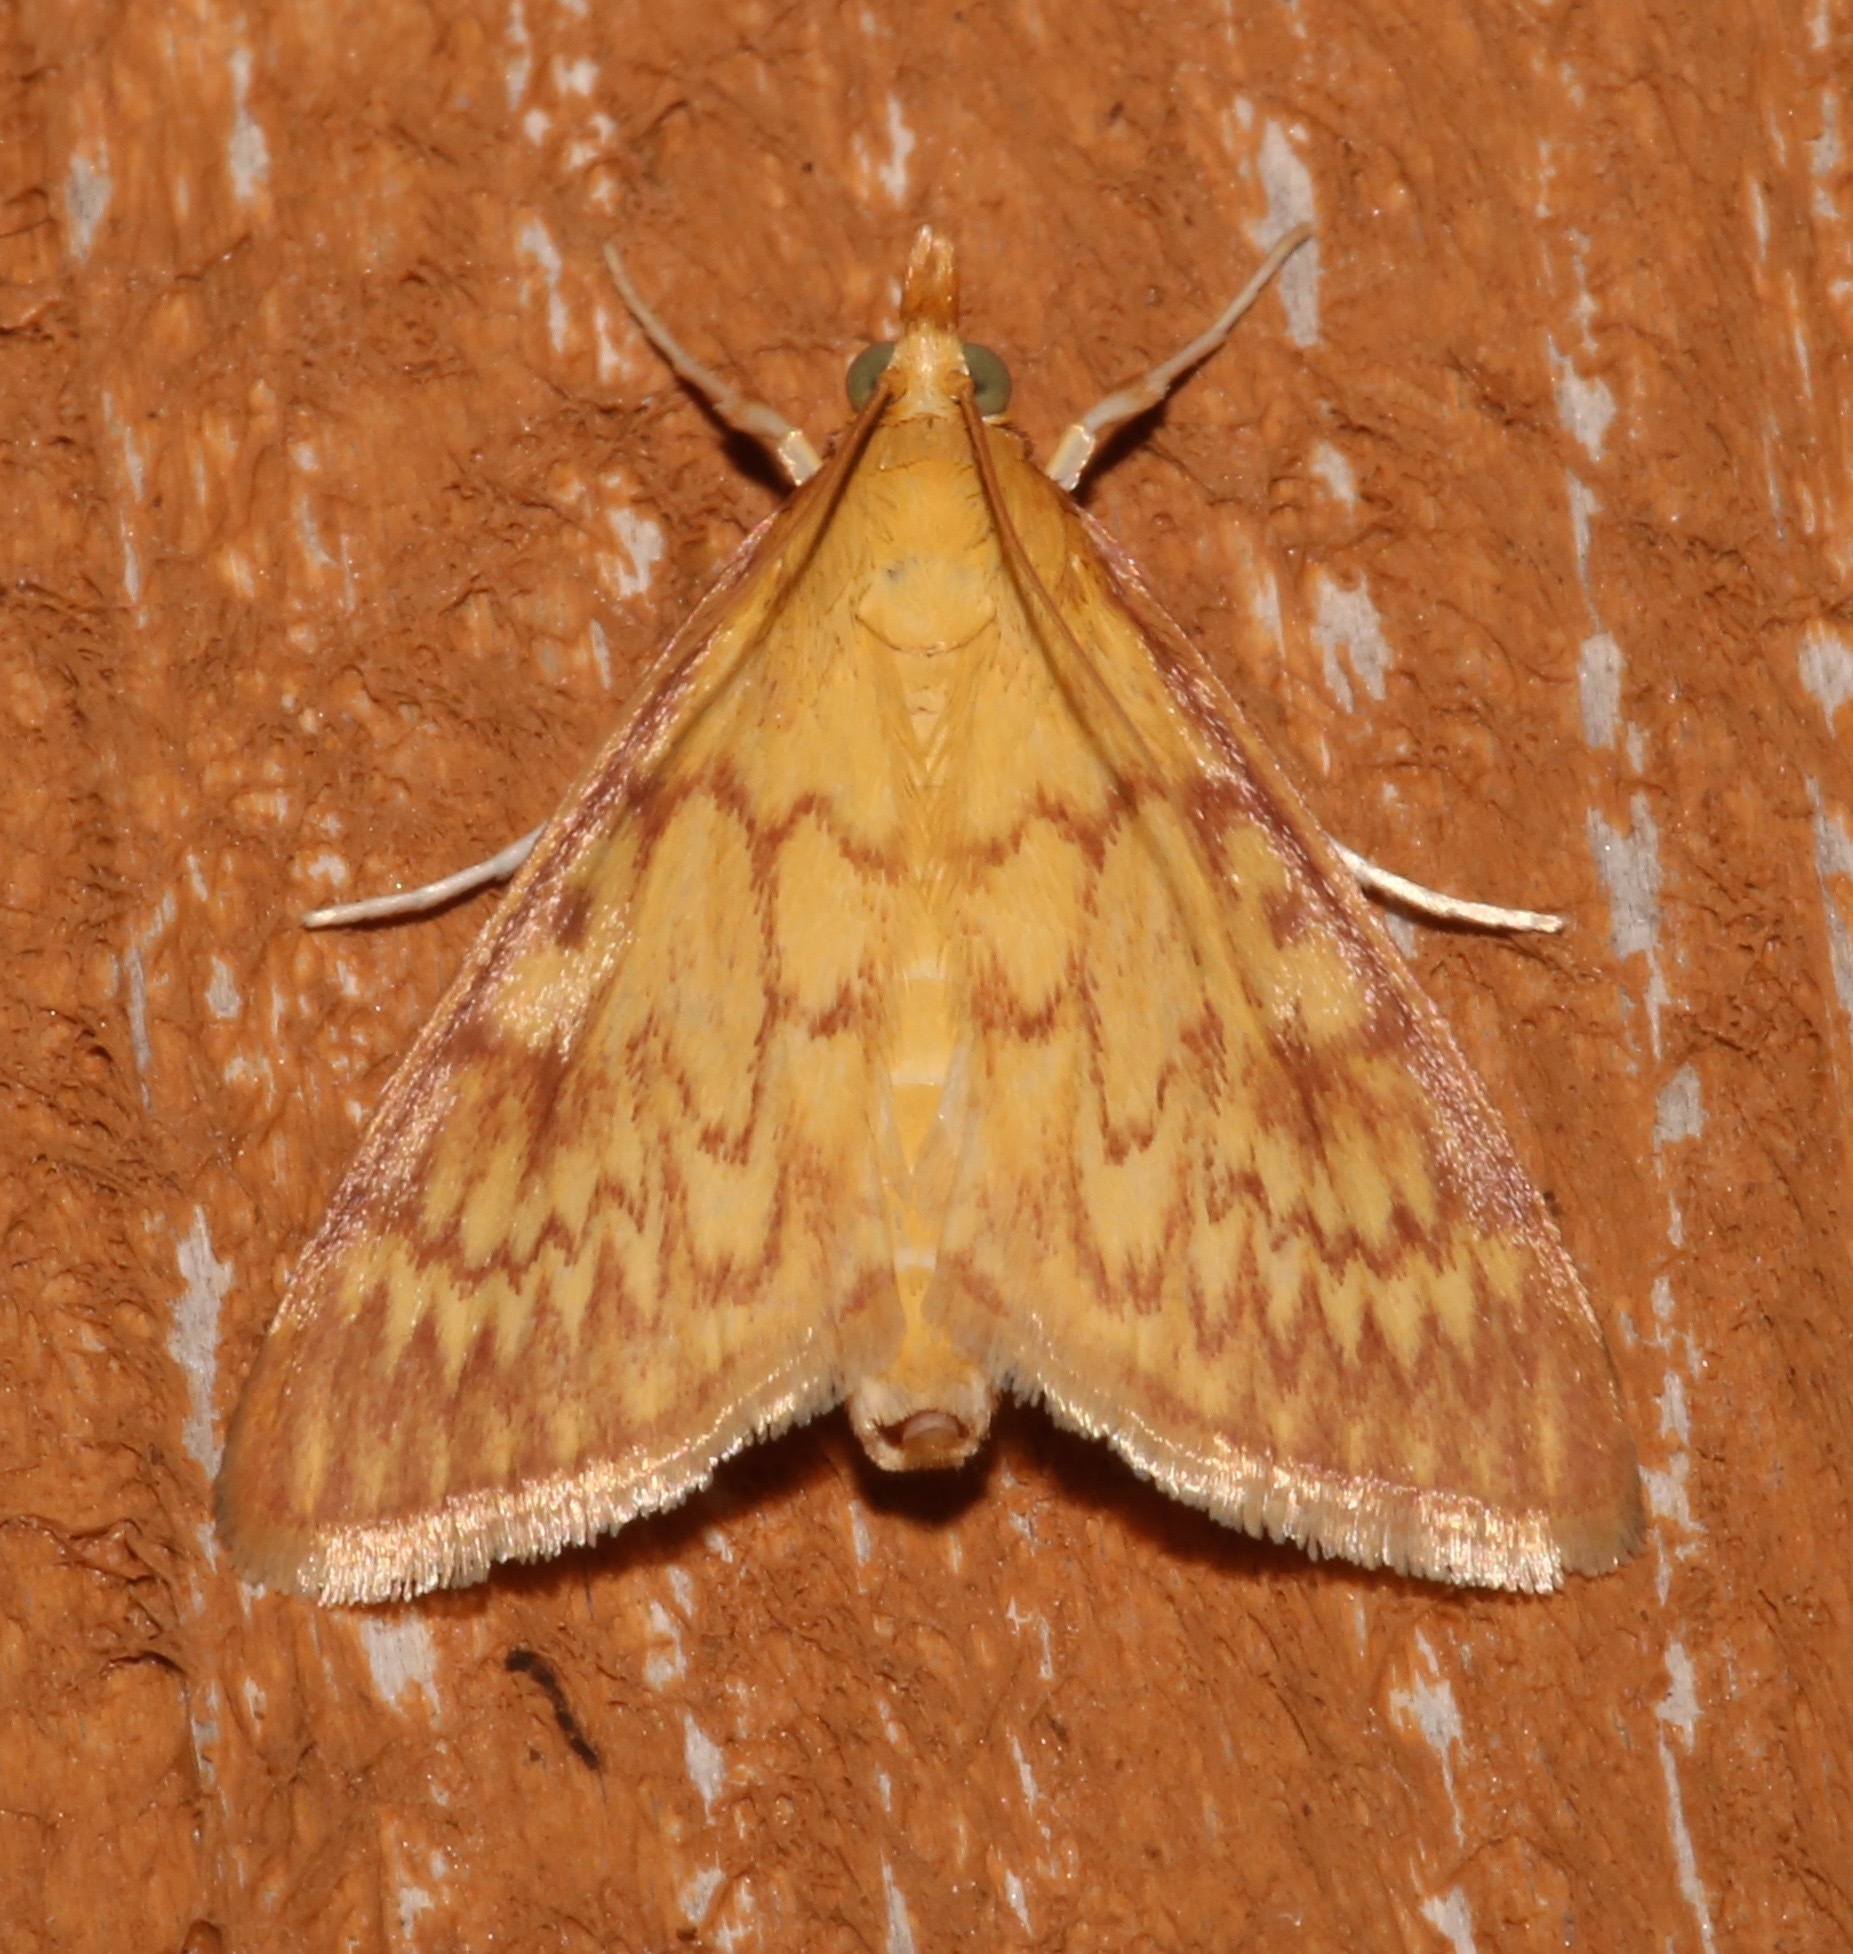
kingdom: Animalia
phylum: Arthropoda
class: Insecta
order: Lepidoptera
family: Crambidae
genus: Ostrinia
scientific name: Ostrinia penitalis
